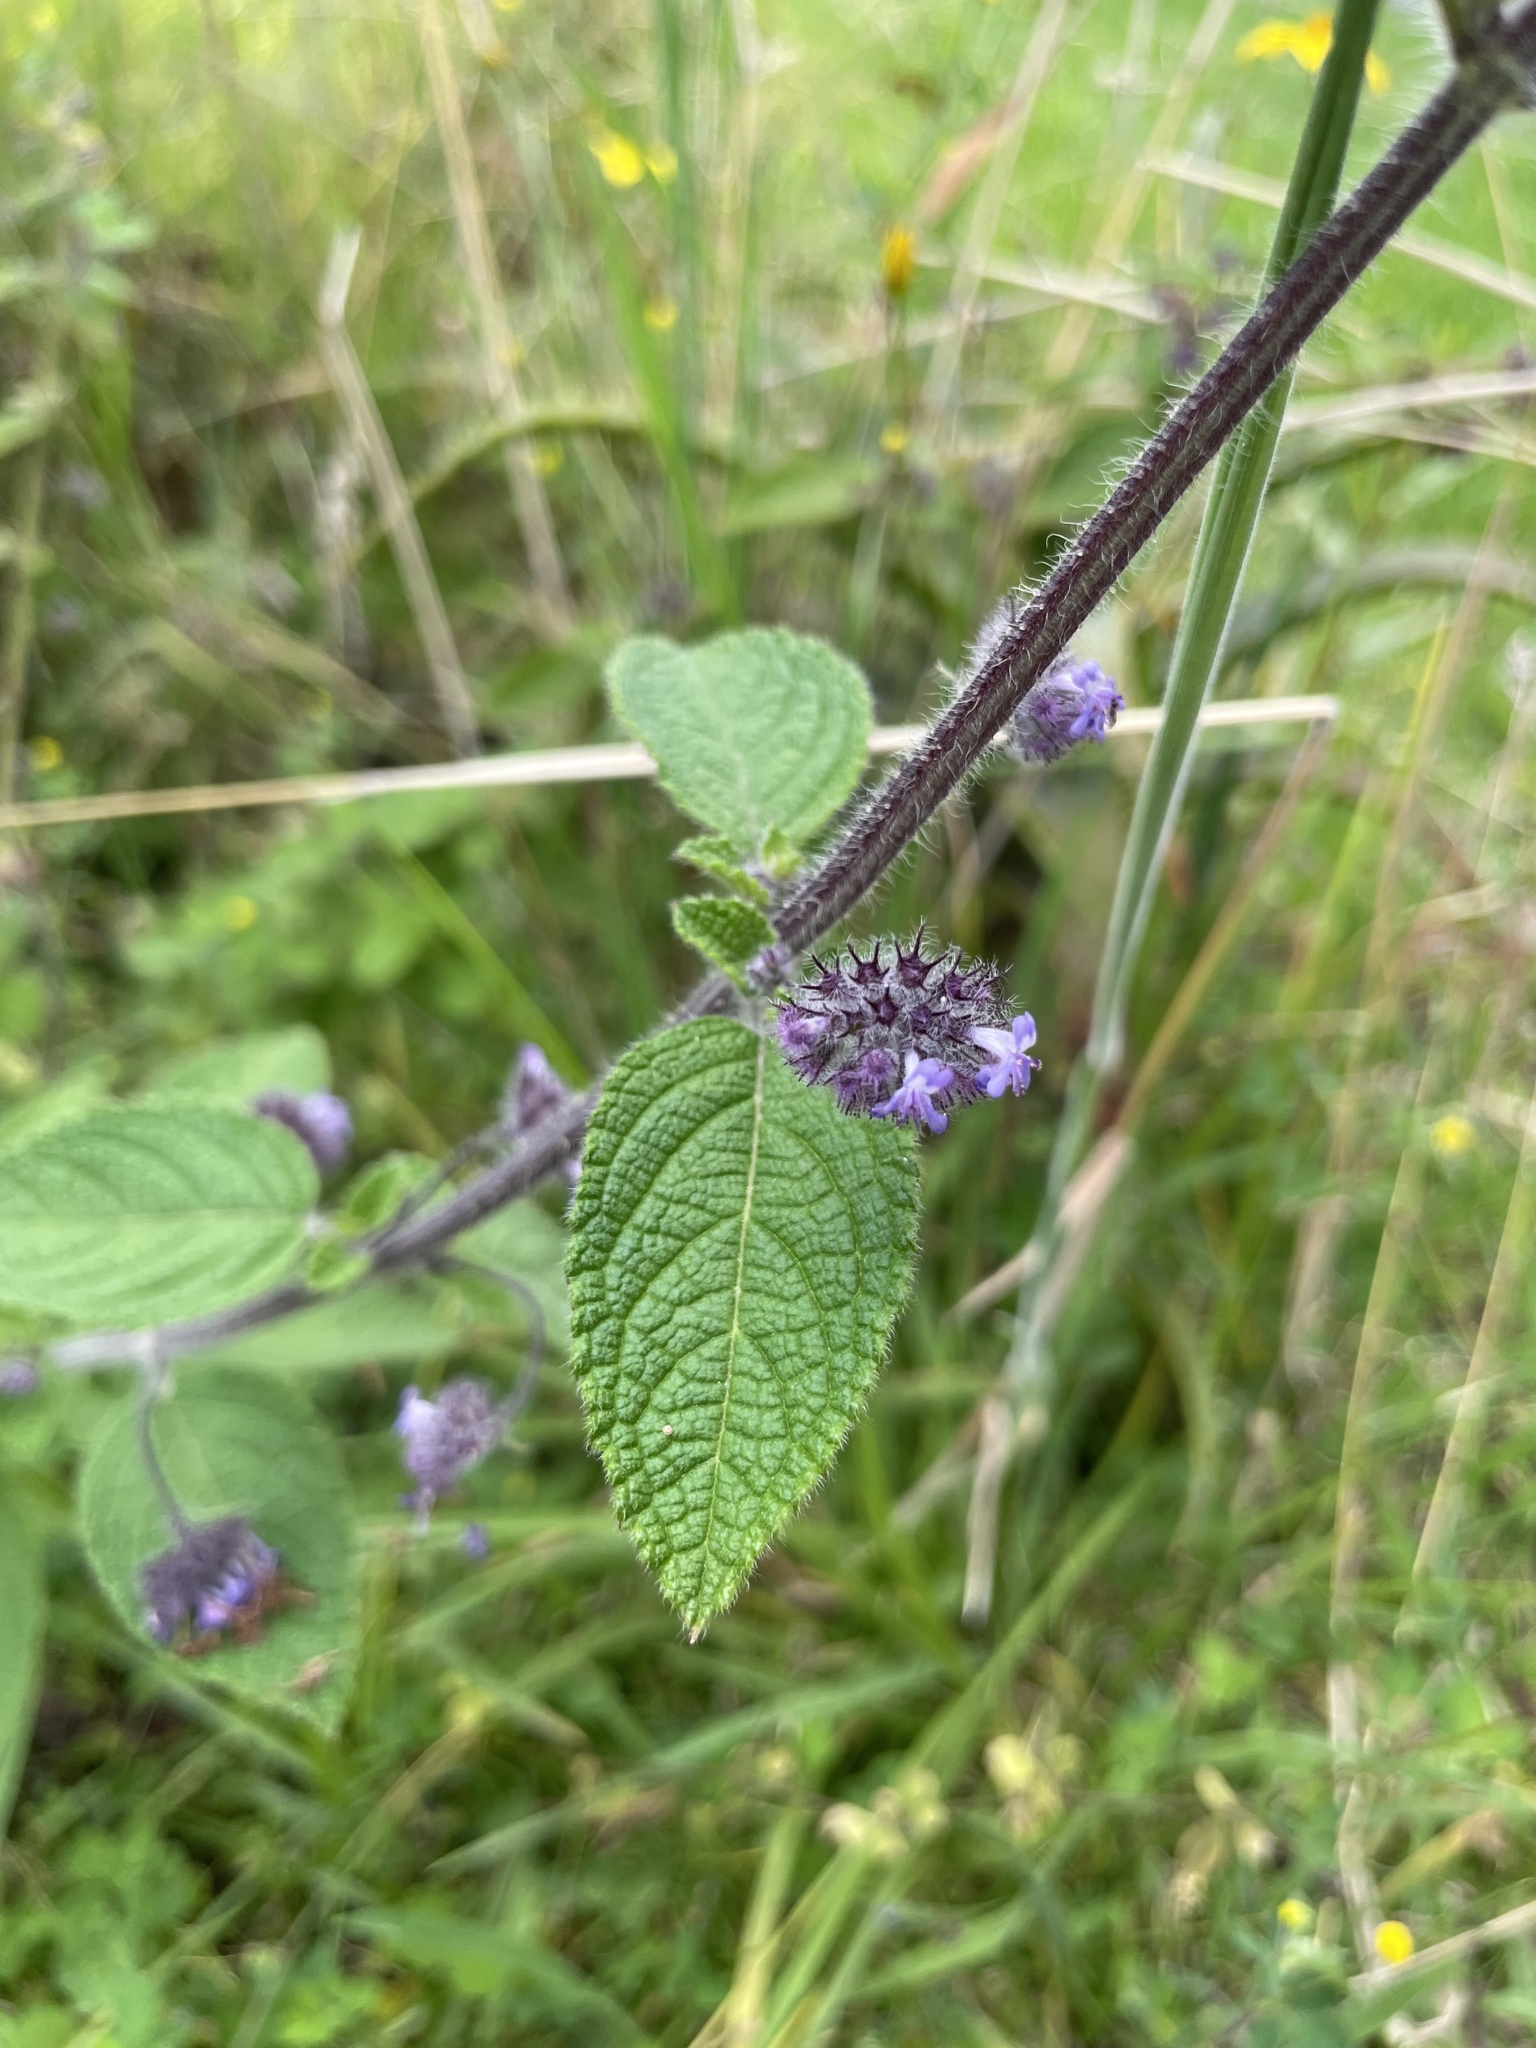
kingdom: Plantae
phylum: Tracheophyta
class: Magnoliopsida
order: Lamiales
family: Lamiaceae
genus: Mesosphaerum
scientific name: Mesosphaerum eriocephalum
